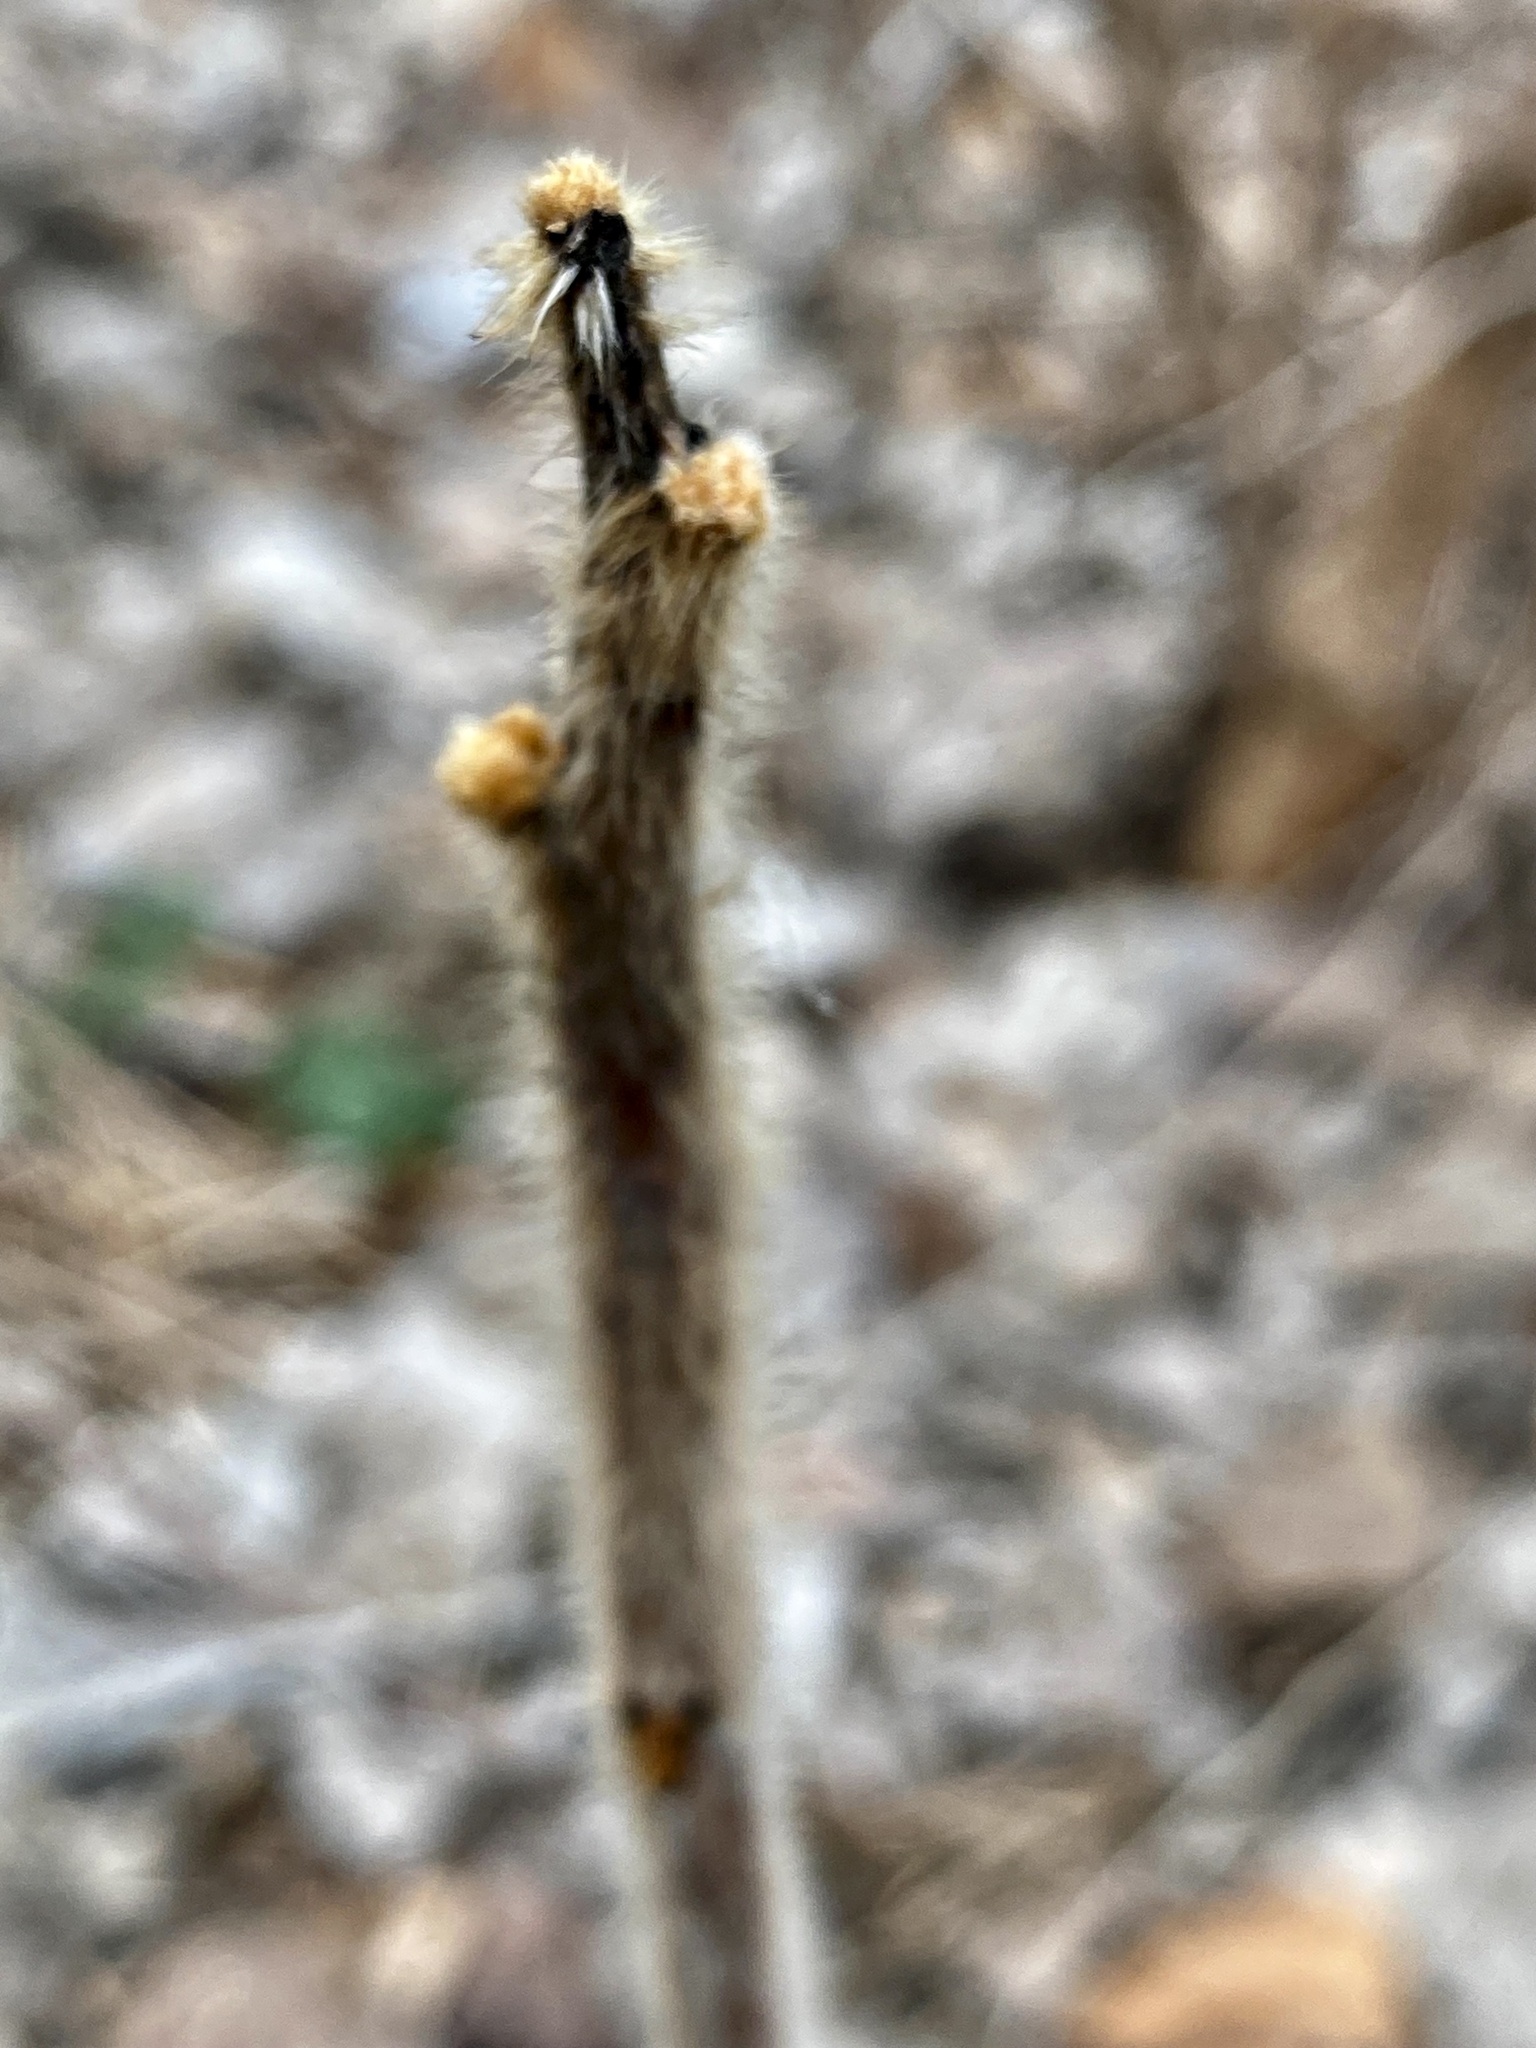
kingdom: Plantae
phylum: Tracheophyta
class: Magnoliopsida
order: Sapindales
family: Anacardiaceae
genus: Rhus
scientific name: Rhus typhina
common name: Staghorn sumac
